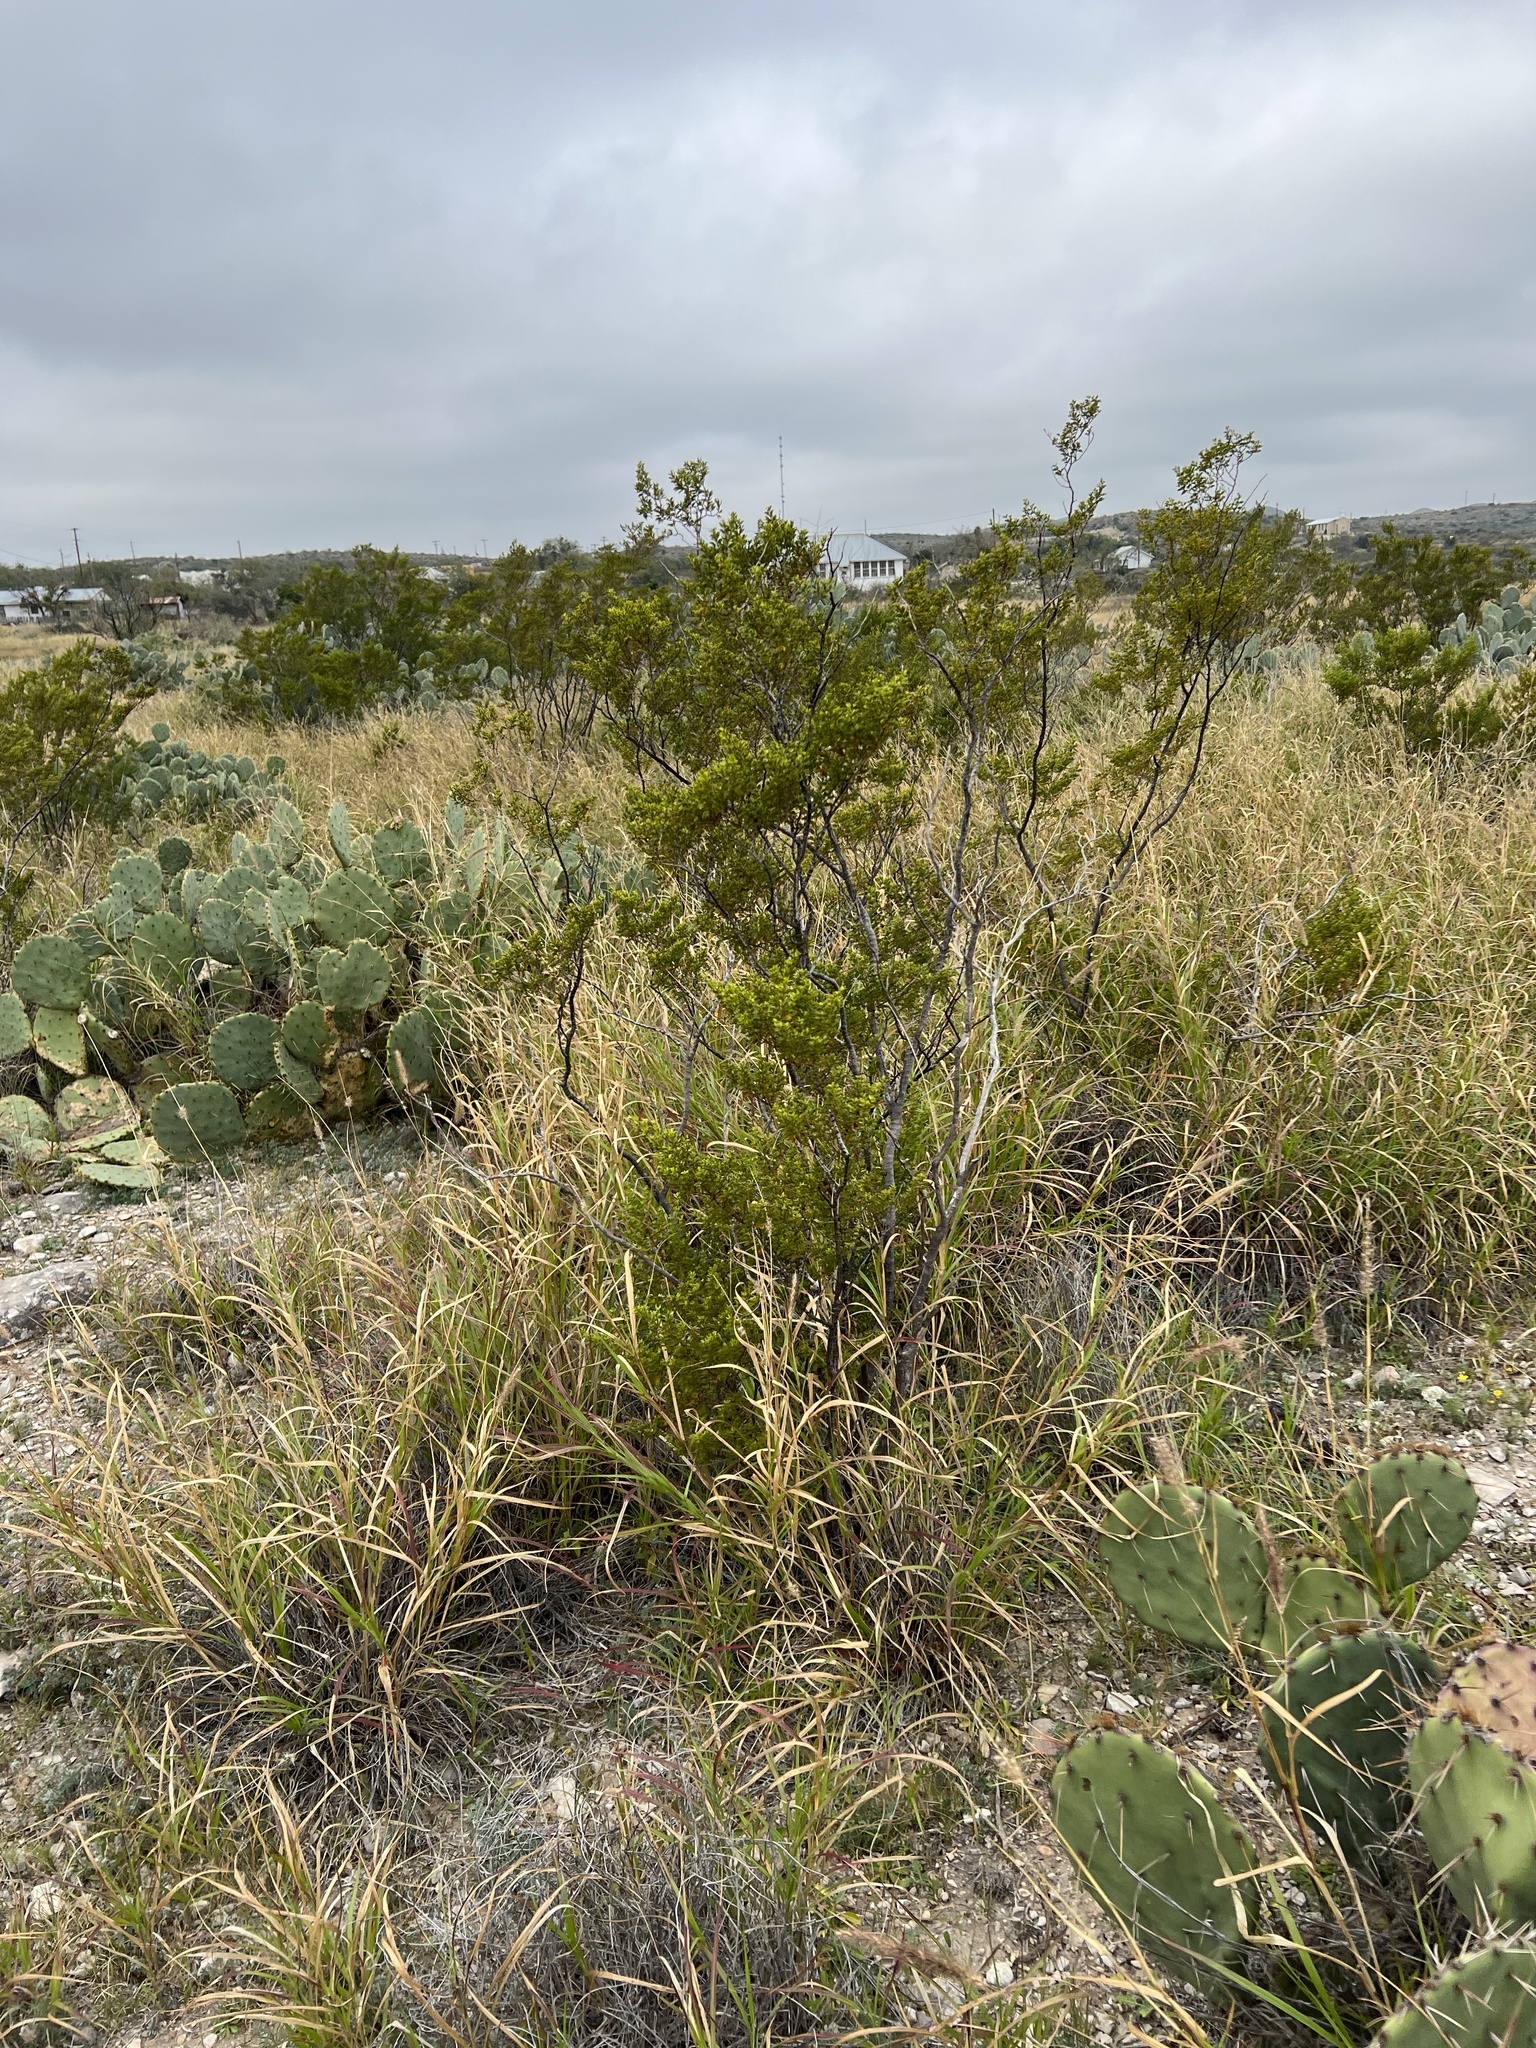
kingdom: Plantae
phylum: Tracheophyta
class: Magnoliopsida
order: Zygophyllales
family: Zygophyllaceae
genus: Larrea
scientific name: Larrea tridentata
